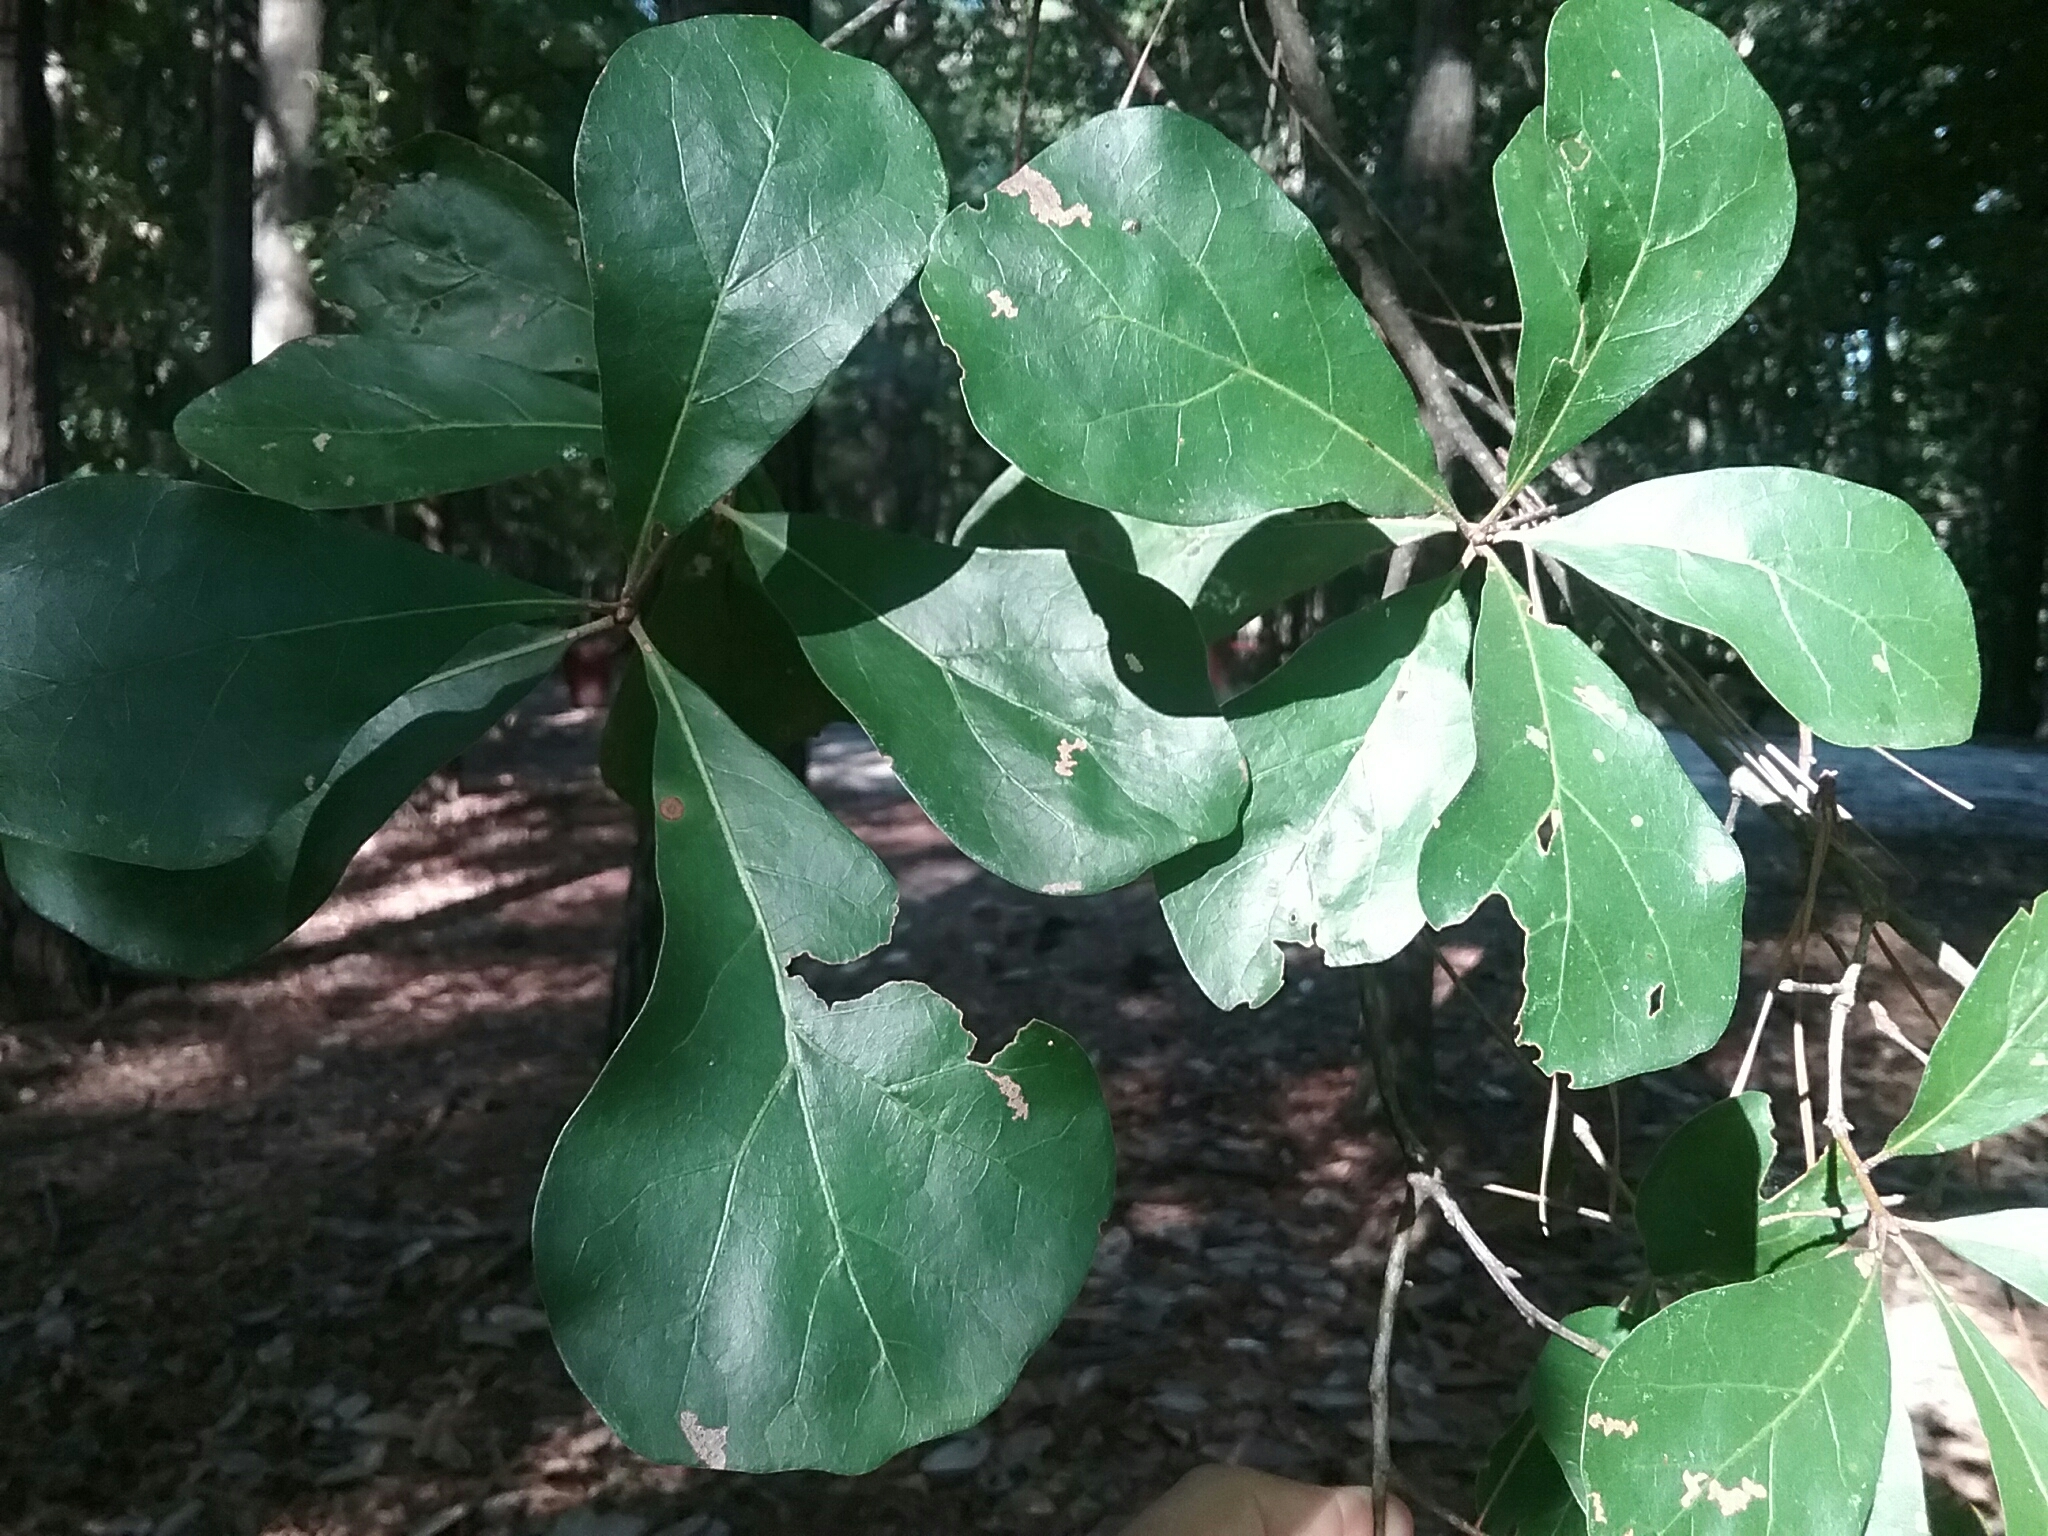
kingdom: Plantae
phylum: Tracheophyta
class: Magnoliopsida
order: Fagales
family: Fagaceae
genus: Quercus
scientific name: Quercus nigra
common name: Water oak
